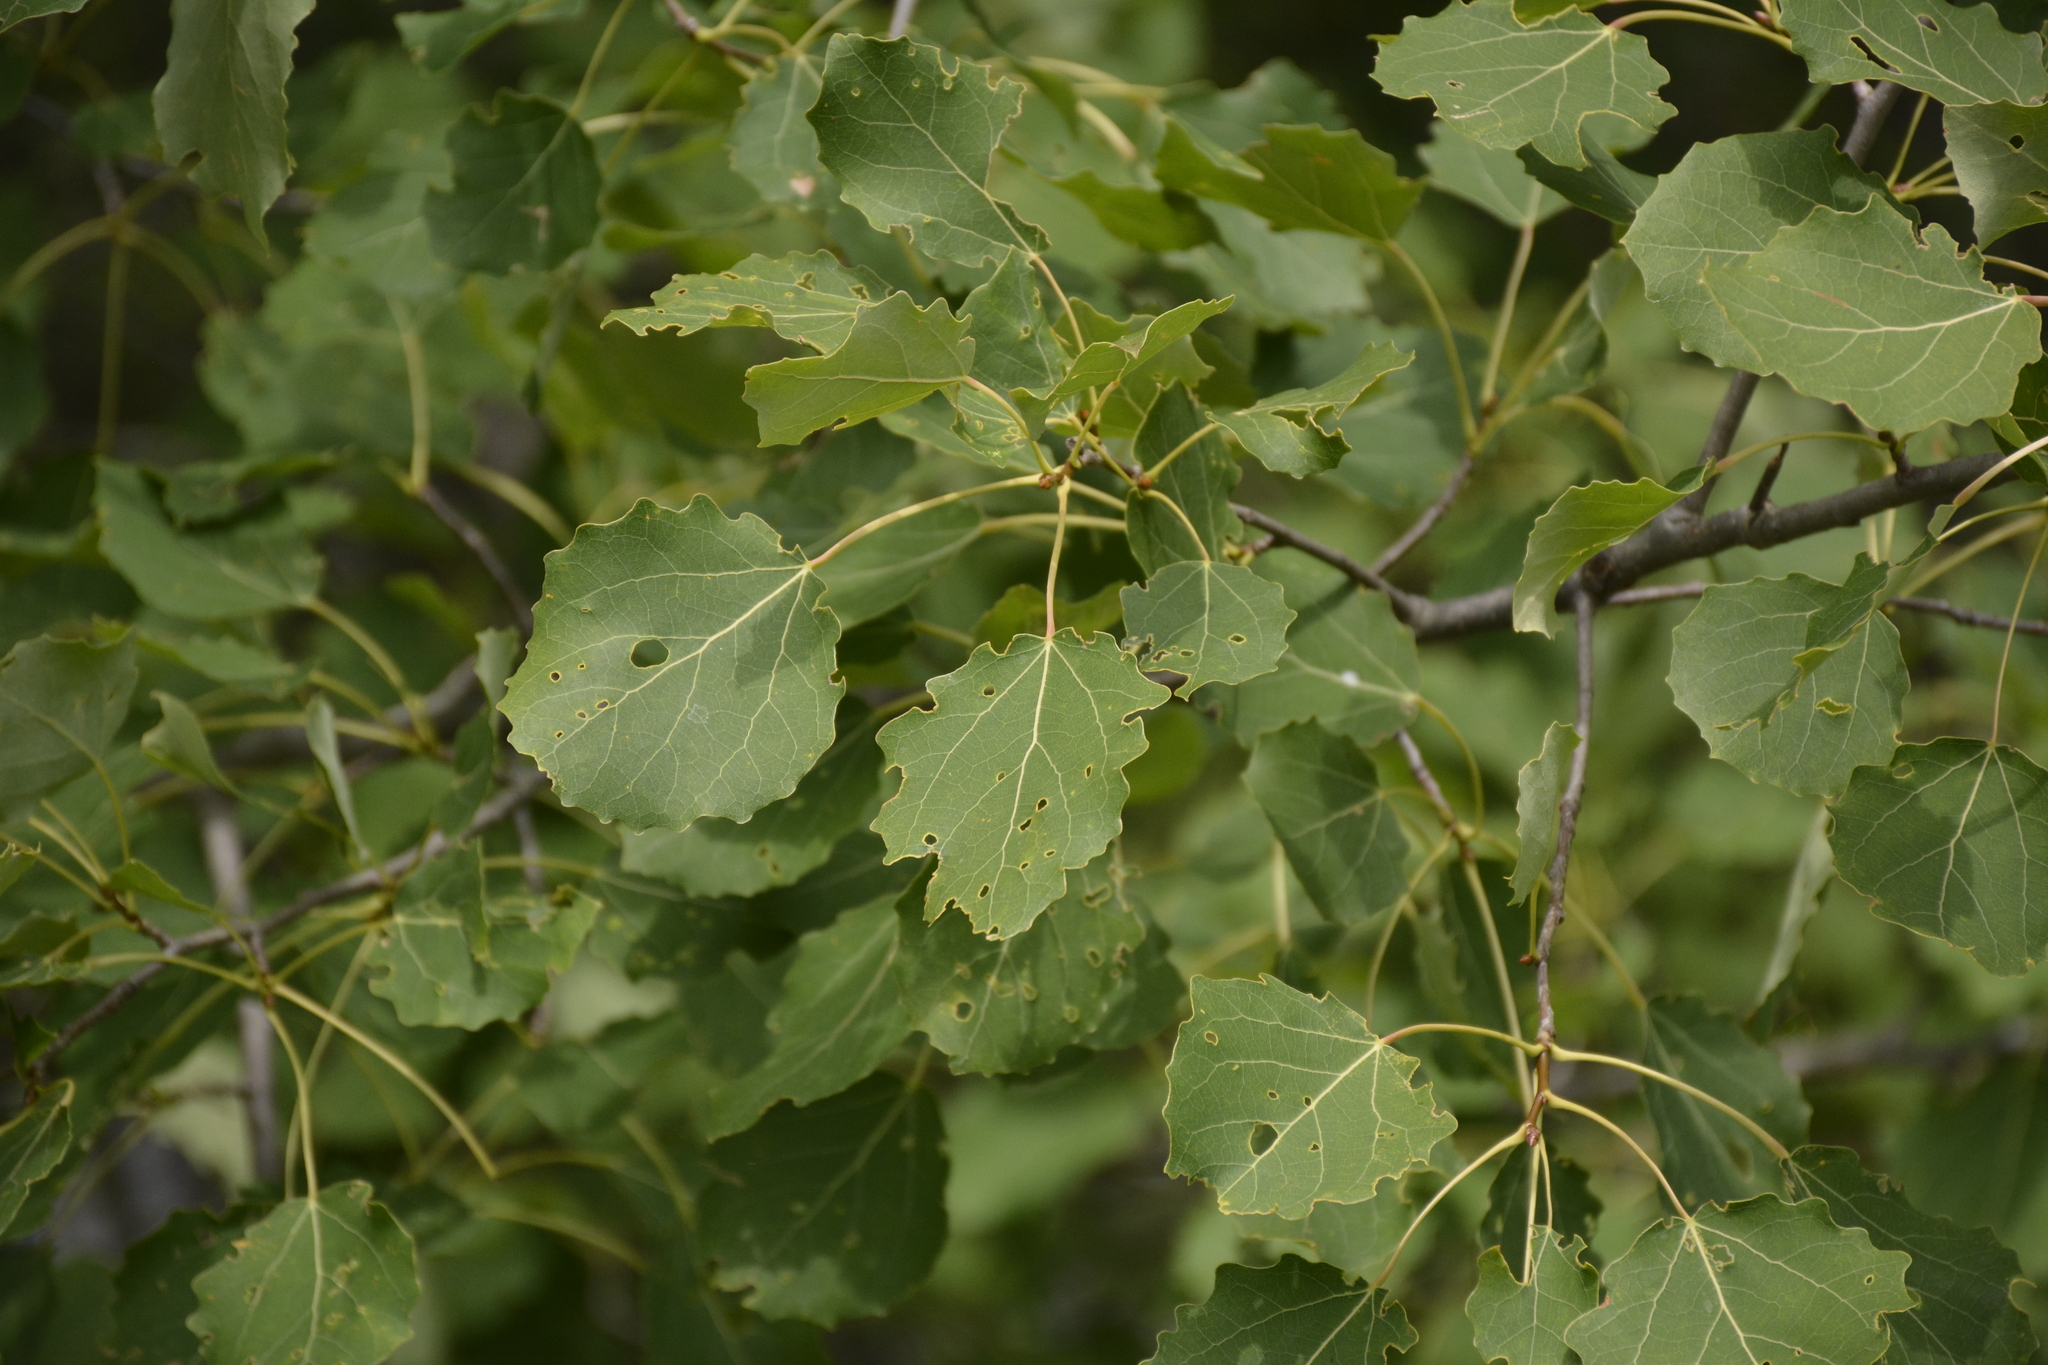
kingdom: Plantae
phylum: Tracheophyta
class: Magnoliopsida
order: Malpighiales
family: Salicaceae
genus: Populus
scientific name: Populus tremula
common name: European aspen
